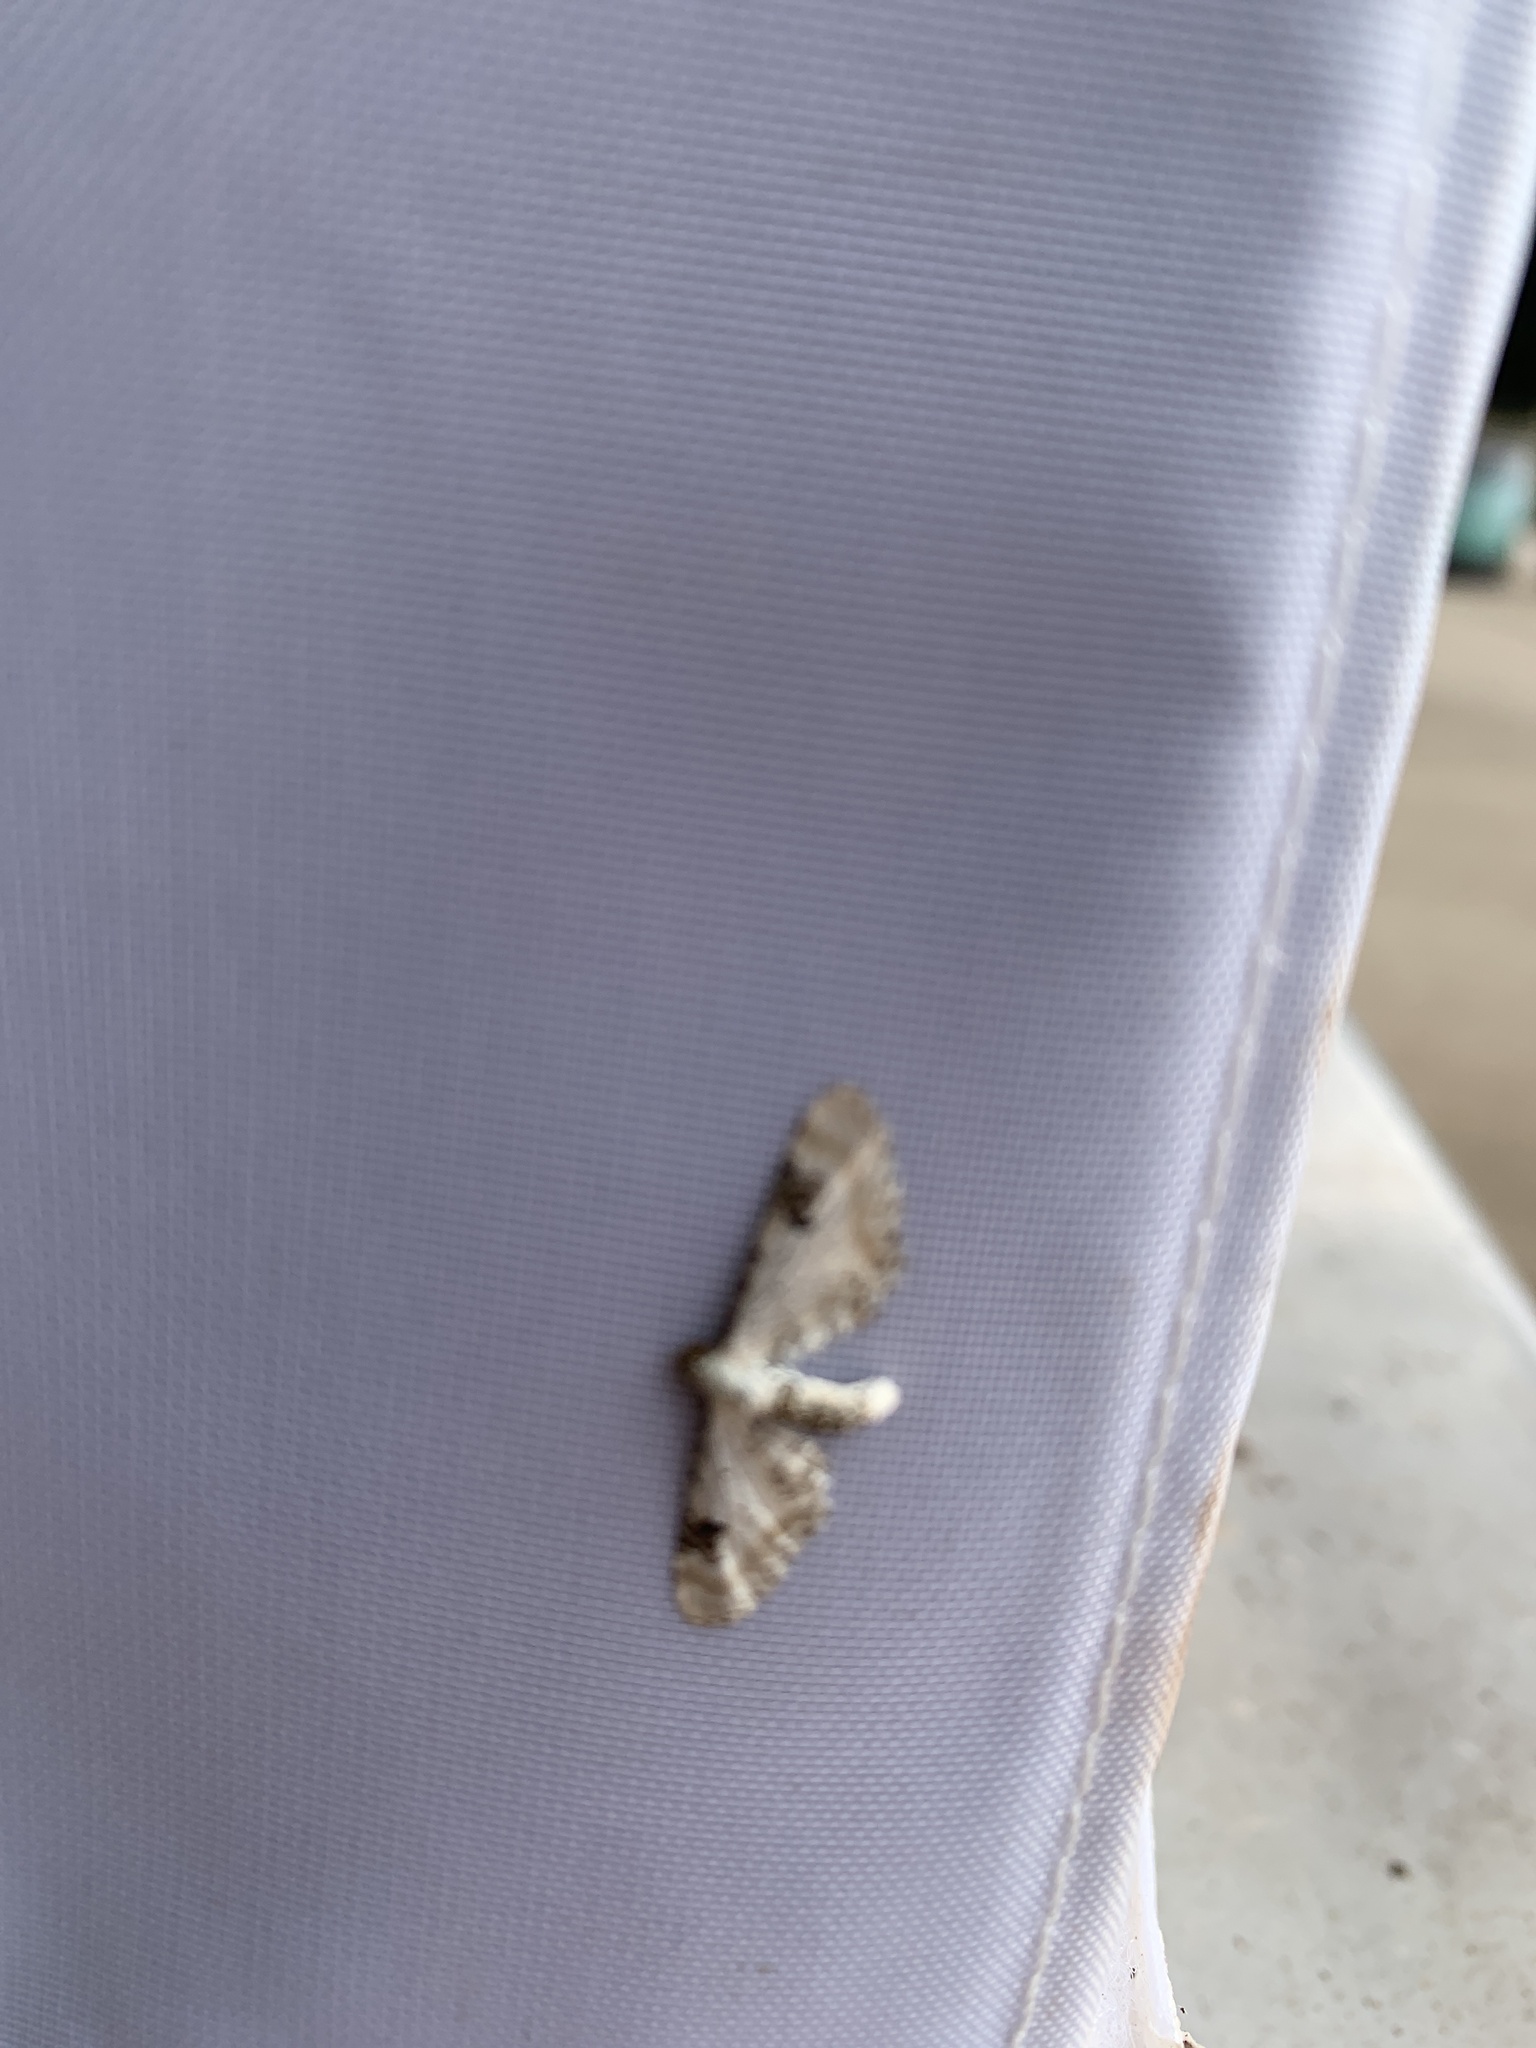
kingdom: Animalia
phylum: Arthropoda
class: Insecta
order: Lepidoptera
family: Geometridae
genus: Eupithecia
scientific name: Eupithecia centaureata
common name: Lime-speck pug
